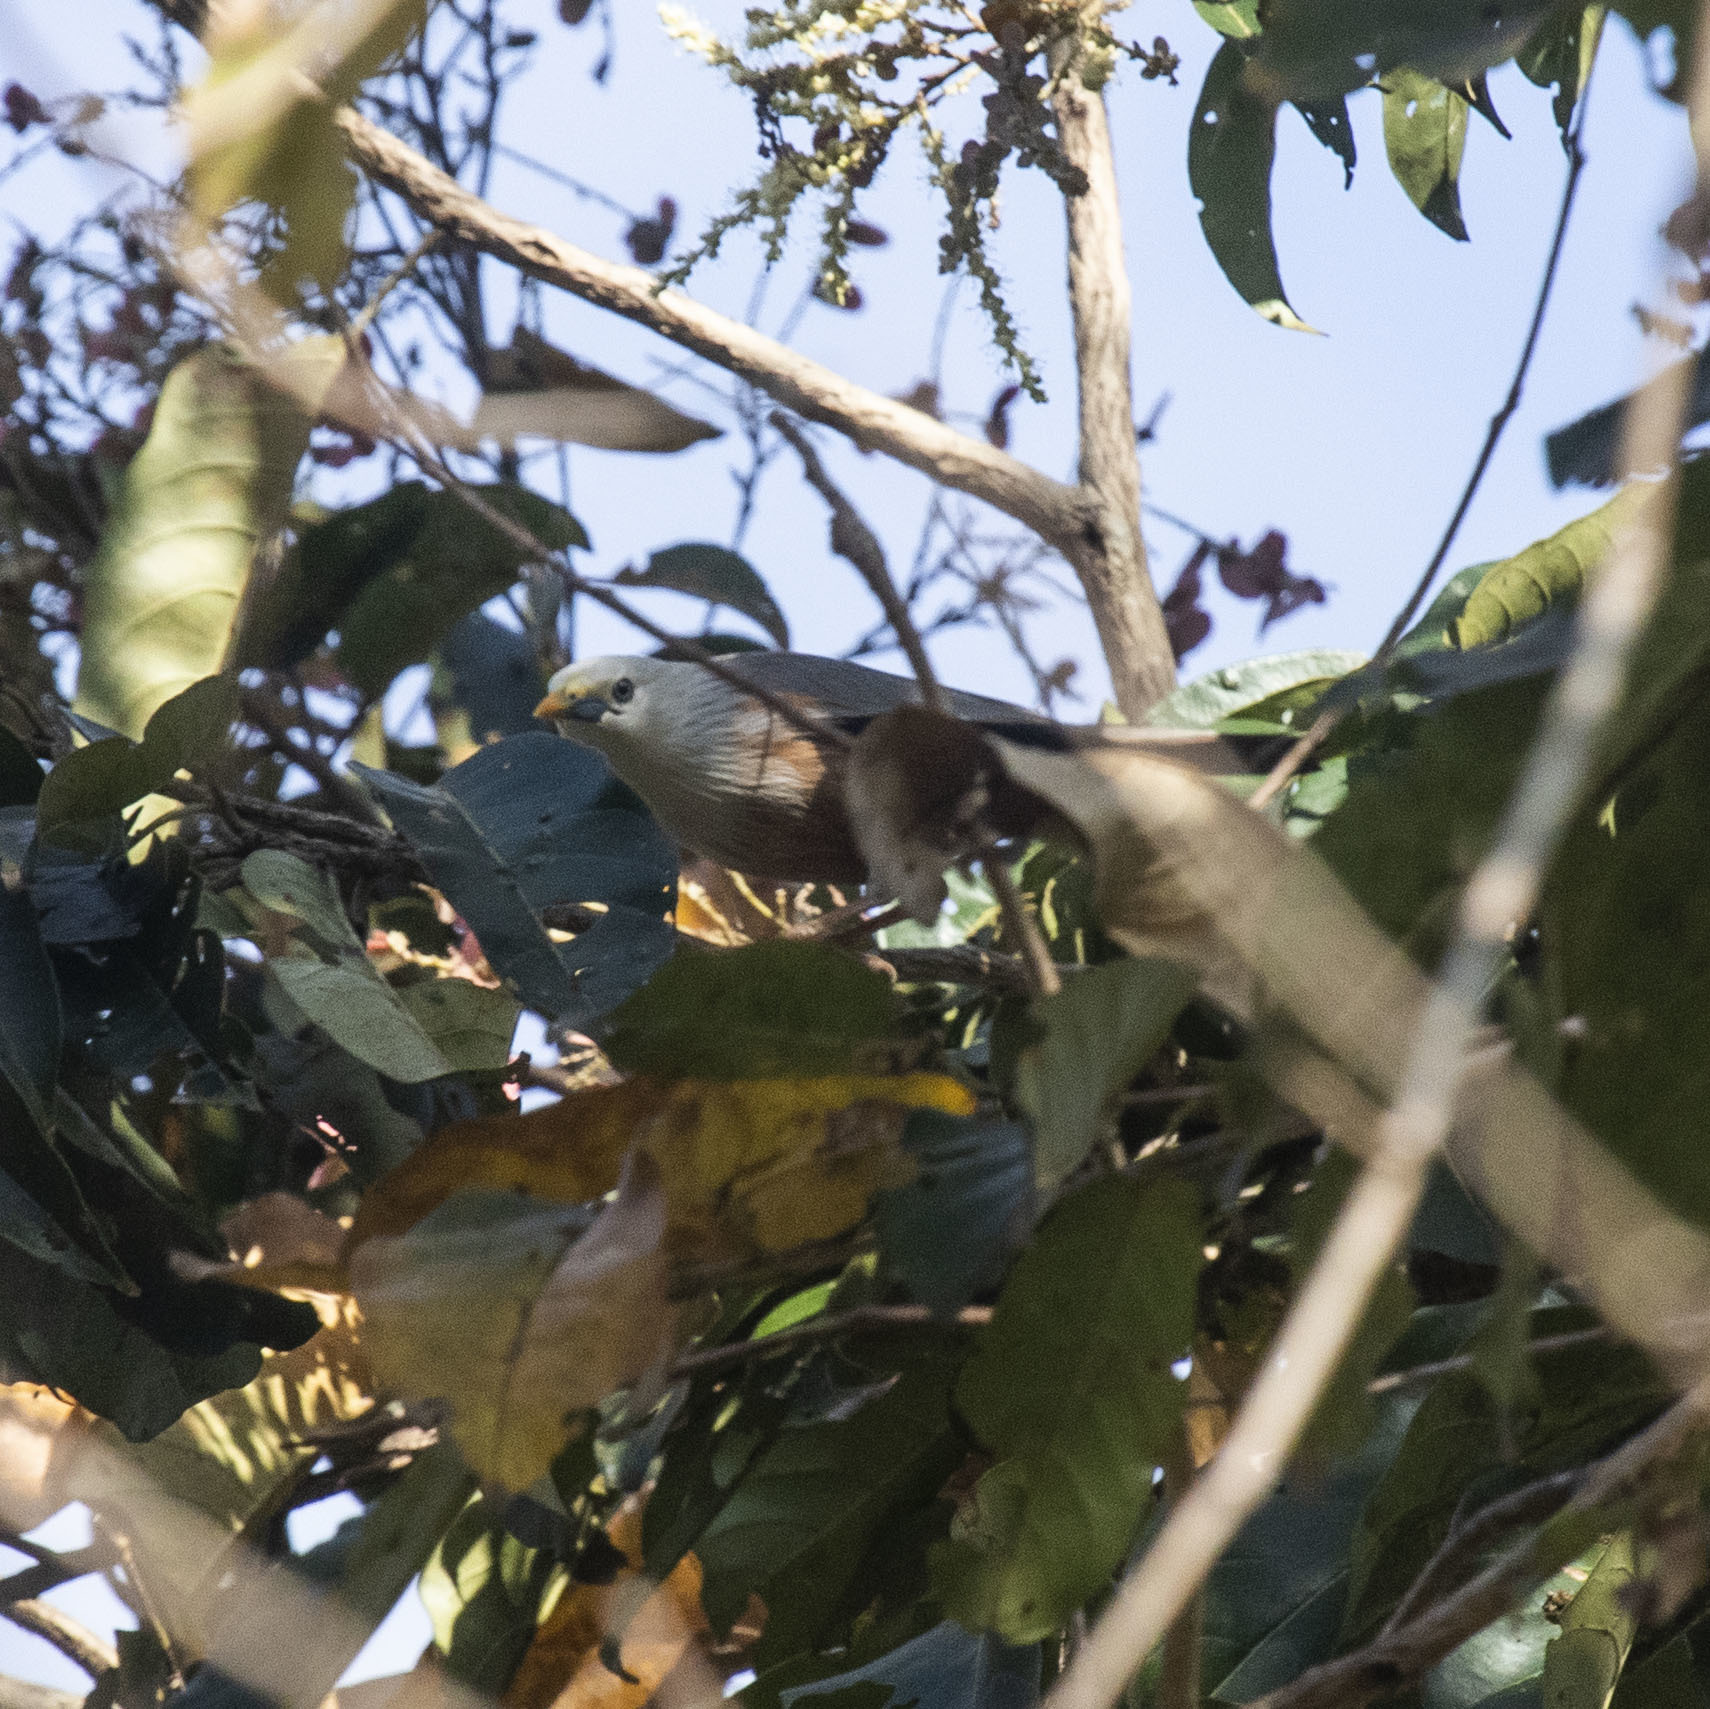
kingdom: Animalia
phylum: Chordata
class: Aves
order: Passeriformes
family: Sturnidae
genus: Sturnia
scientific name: Sturnia blythii
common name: Malabar starling
